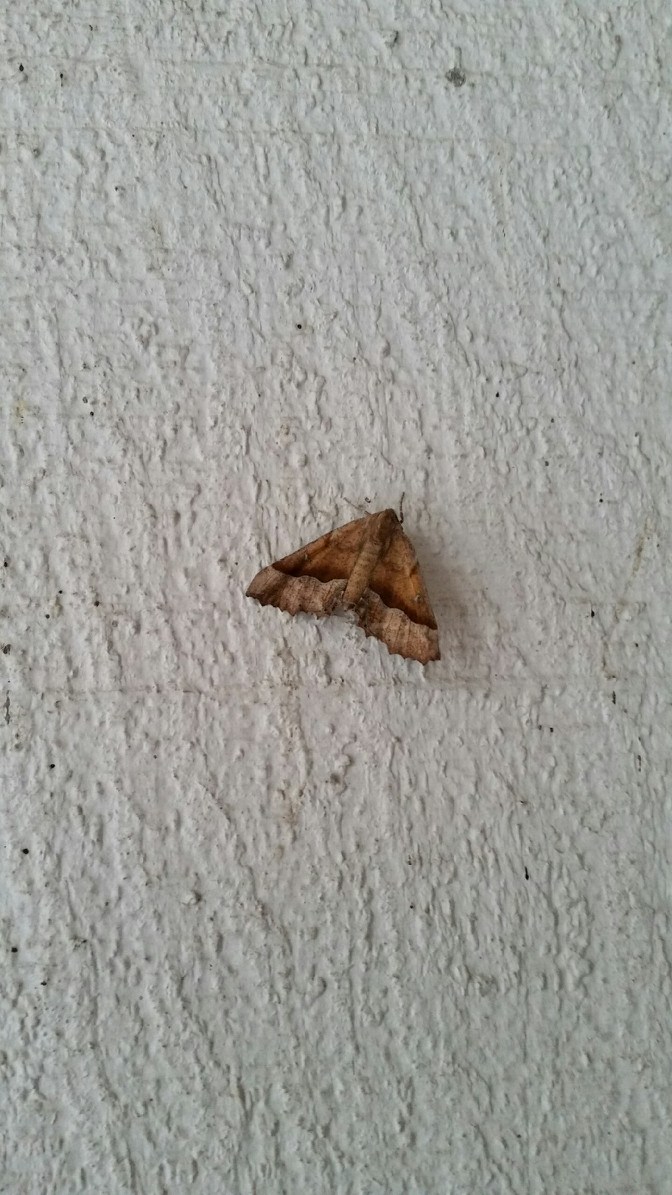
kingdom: Animalia
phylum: Arthropoda
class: Insecta
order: Lepidoptera
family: Geometridae
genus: Pero
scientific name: Pero morrisonaria
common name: Morrison's pero
